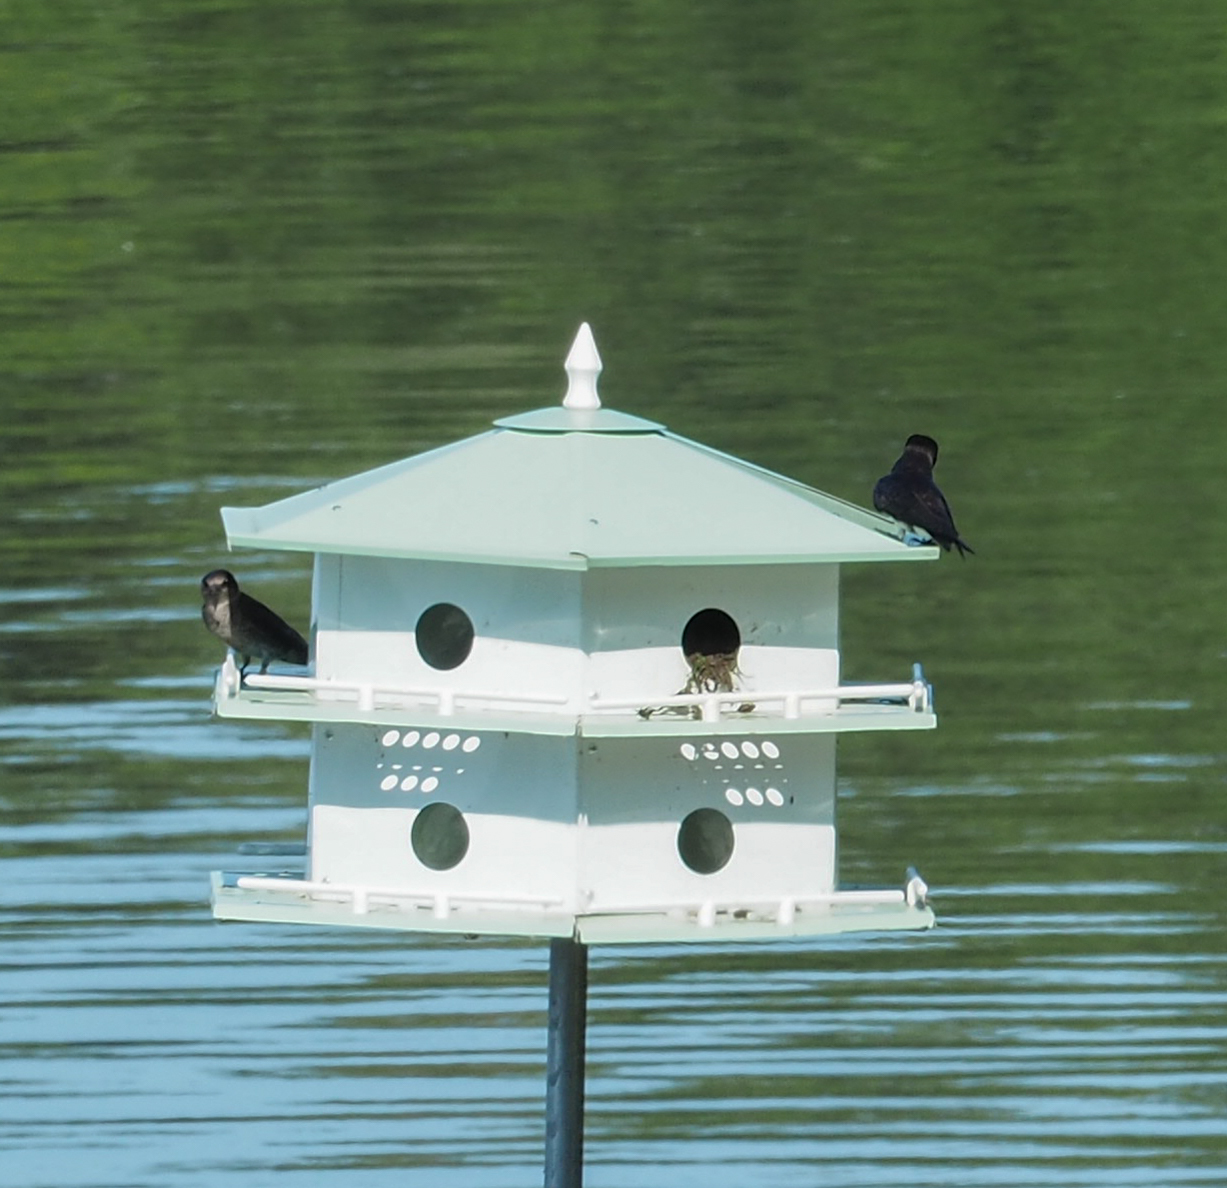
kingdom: Animalia
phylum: Chordata
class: Aves
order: Passeriformes
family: Hirundinidae
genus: Progne
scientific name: Progne subis
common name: Purple martin
